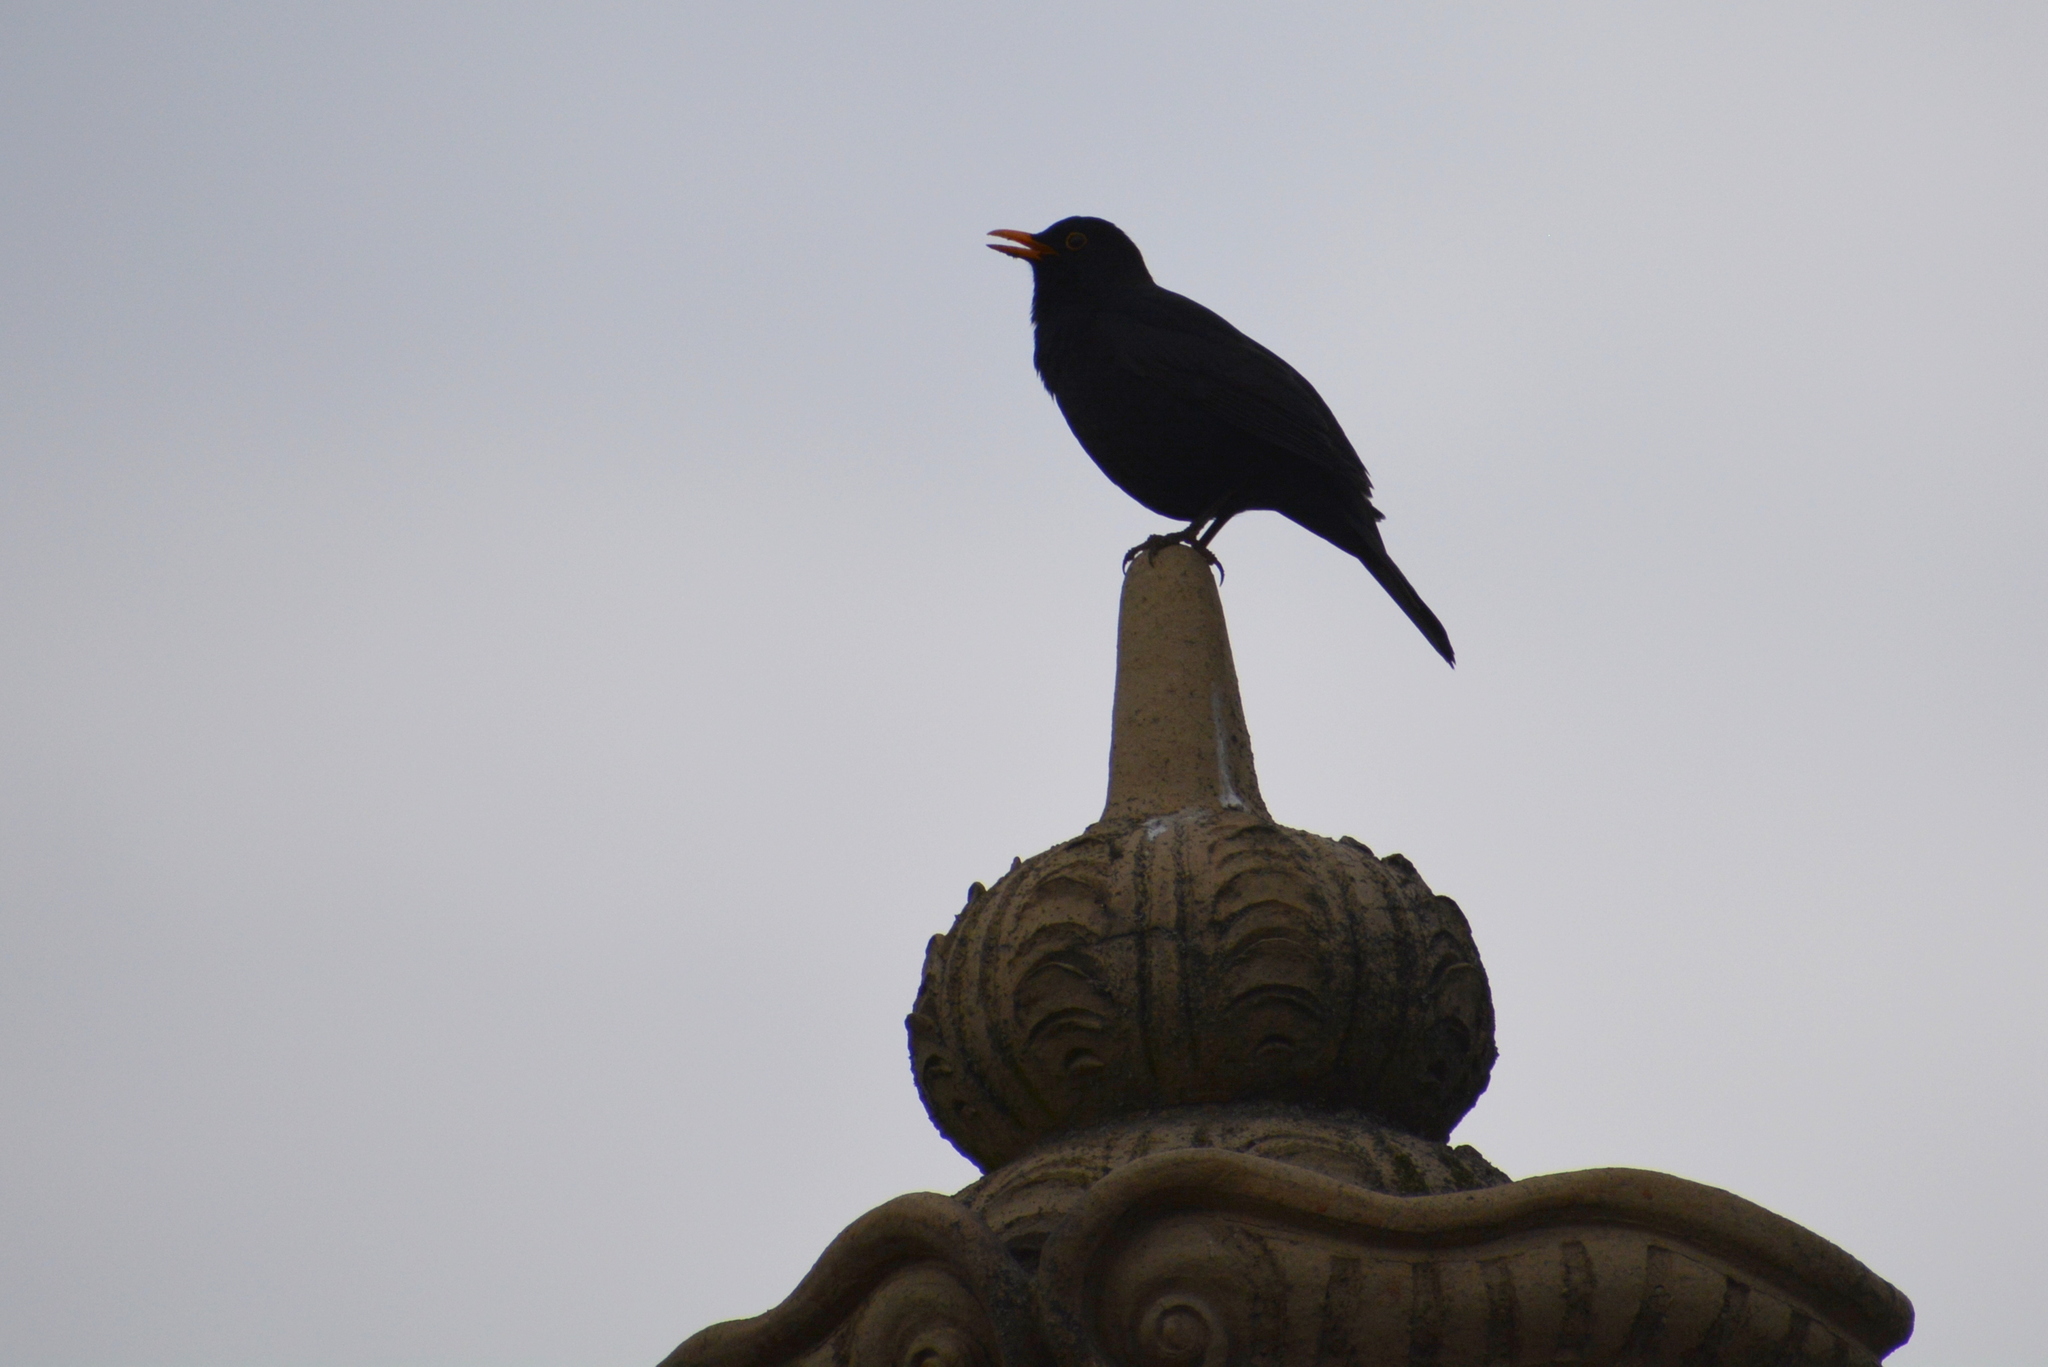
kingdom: Animalia
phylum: Chordata
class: Aves
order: Passeriformes
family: Turdidae
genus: Turdus
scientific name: Turdus merula
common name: Common blackbird
